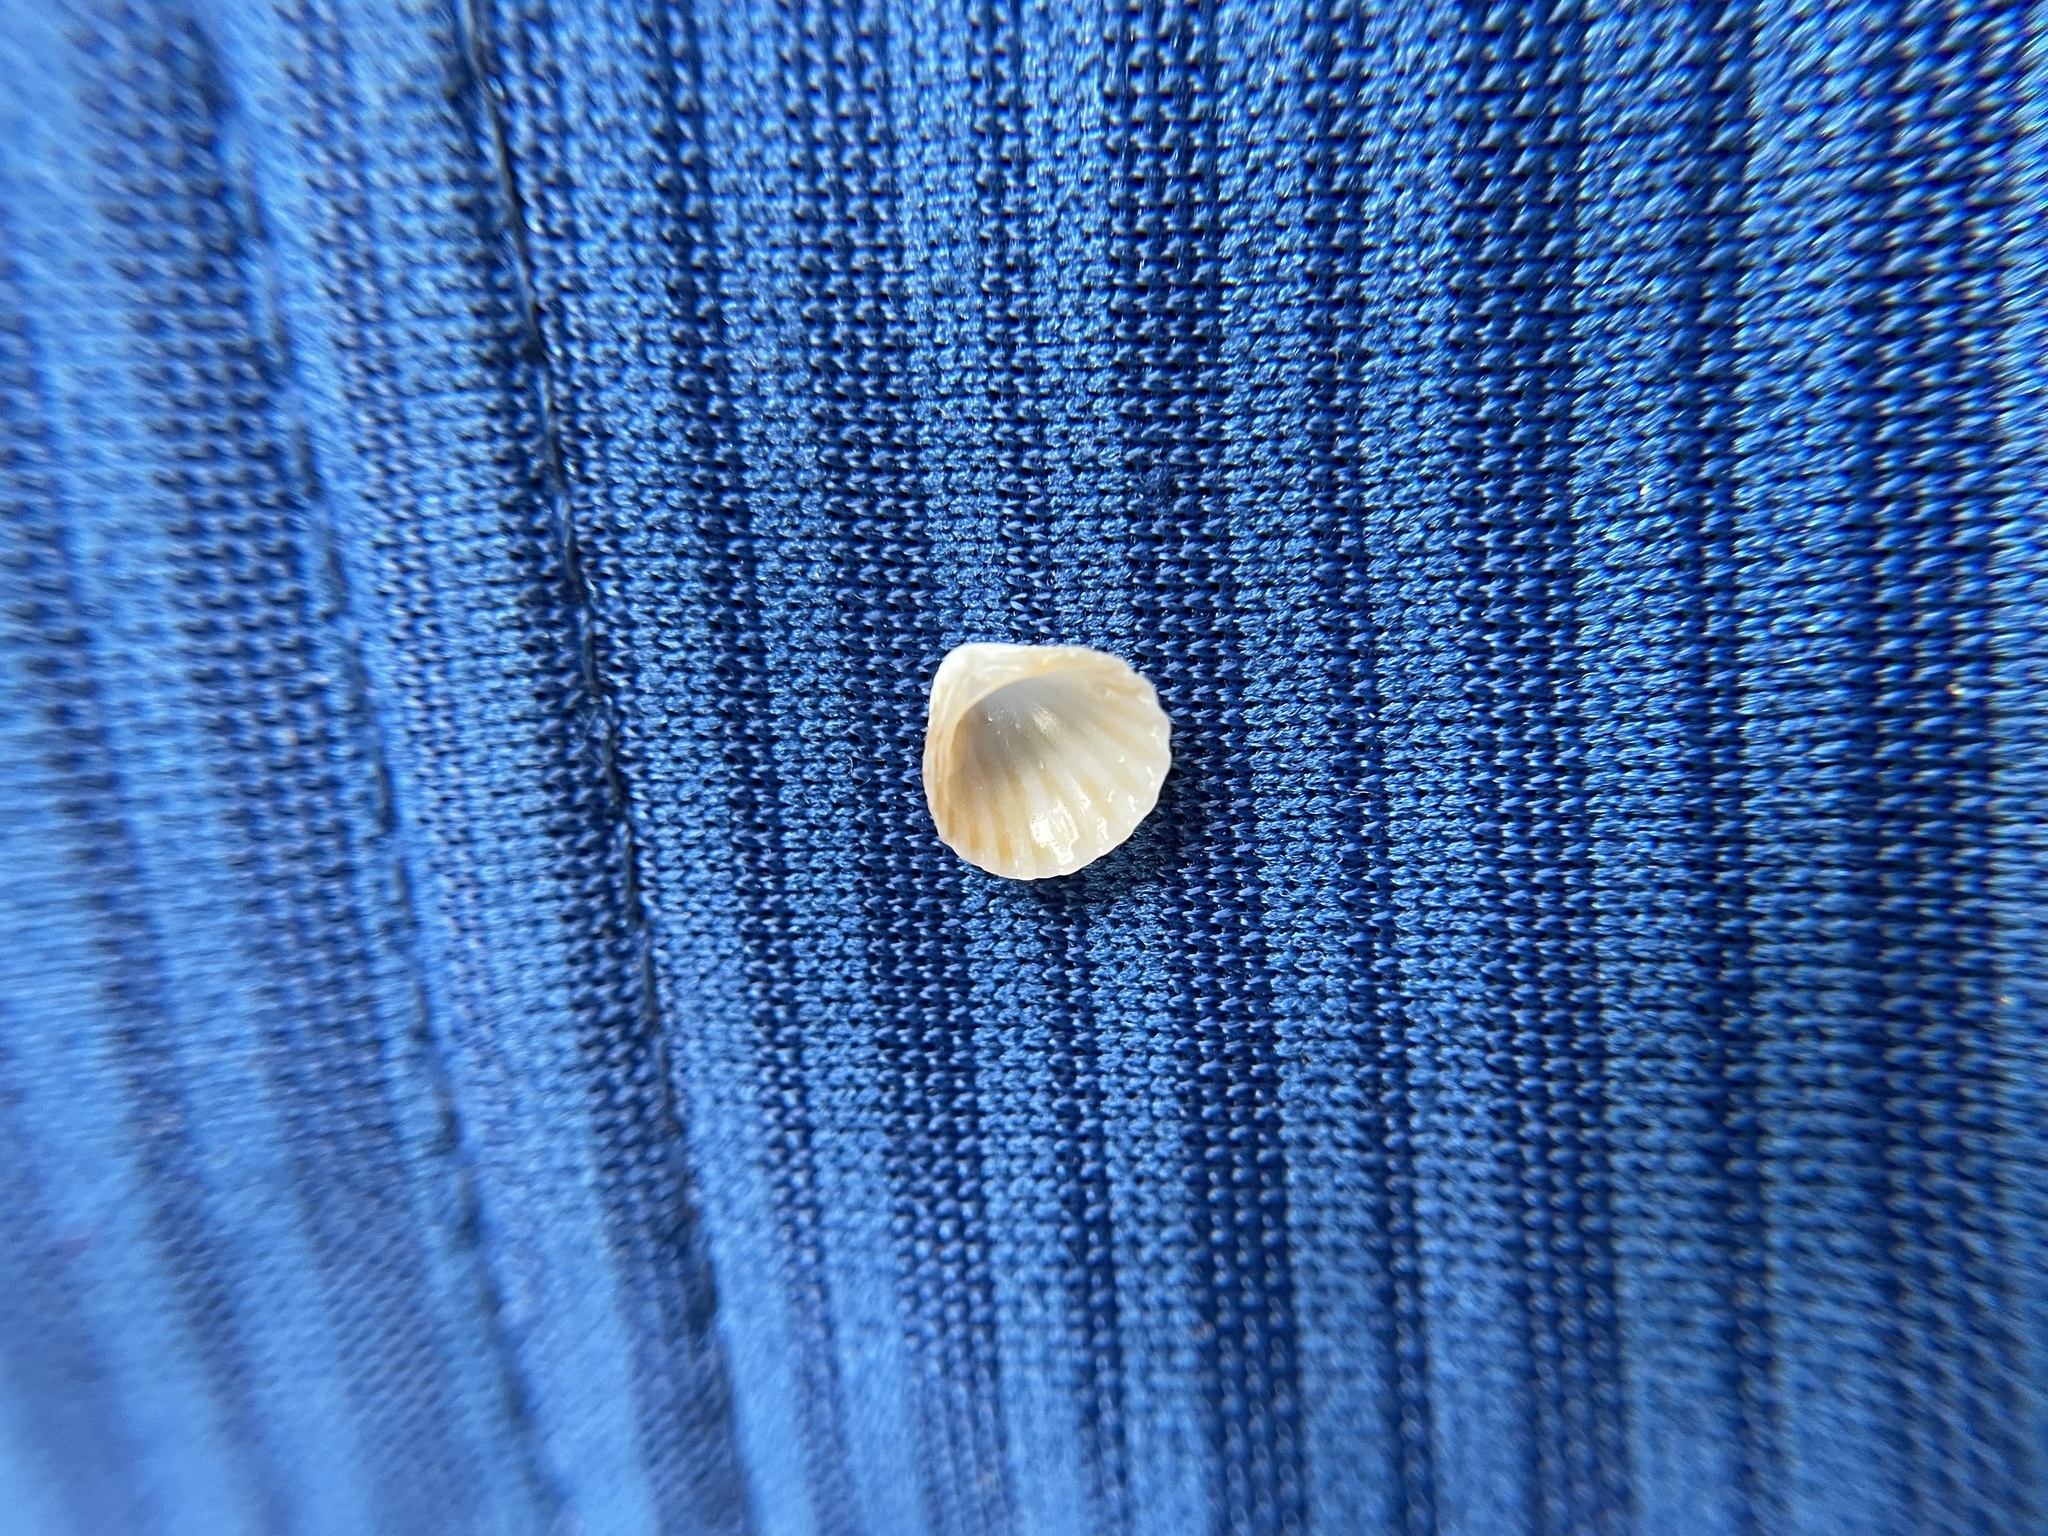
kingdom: Animalia
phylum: Mollusca
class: Bivalvia
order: Carditida
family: Carditidae
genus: Pleuromeris
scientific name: Pleuromeris tridentata
